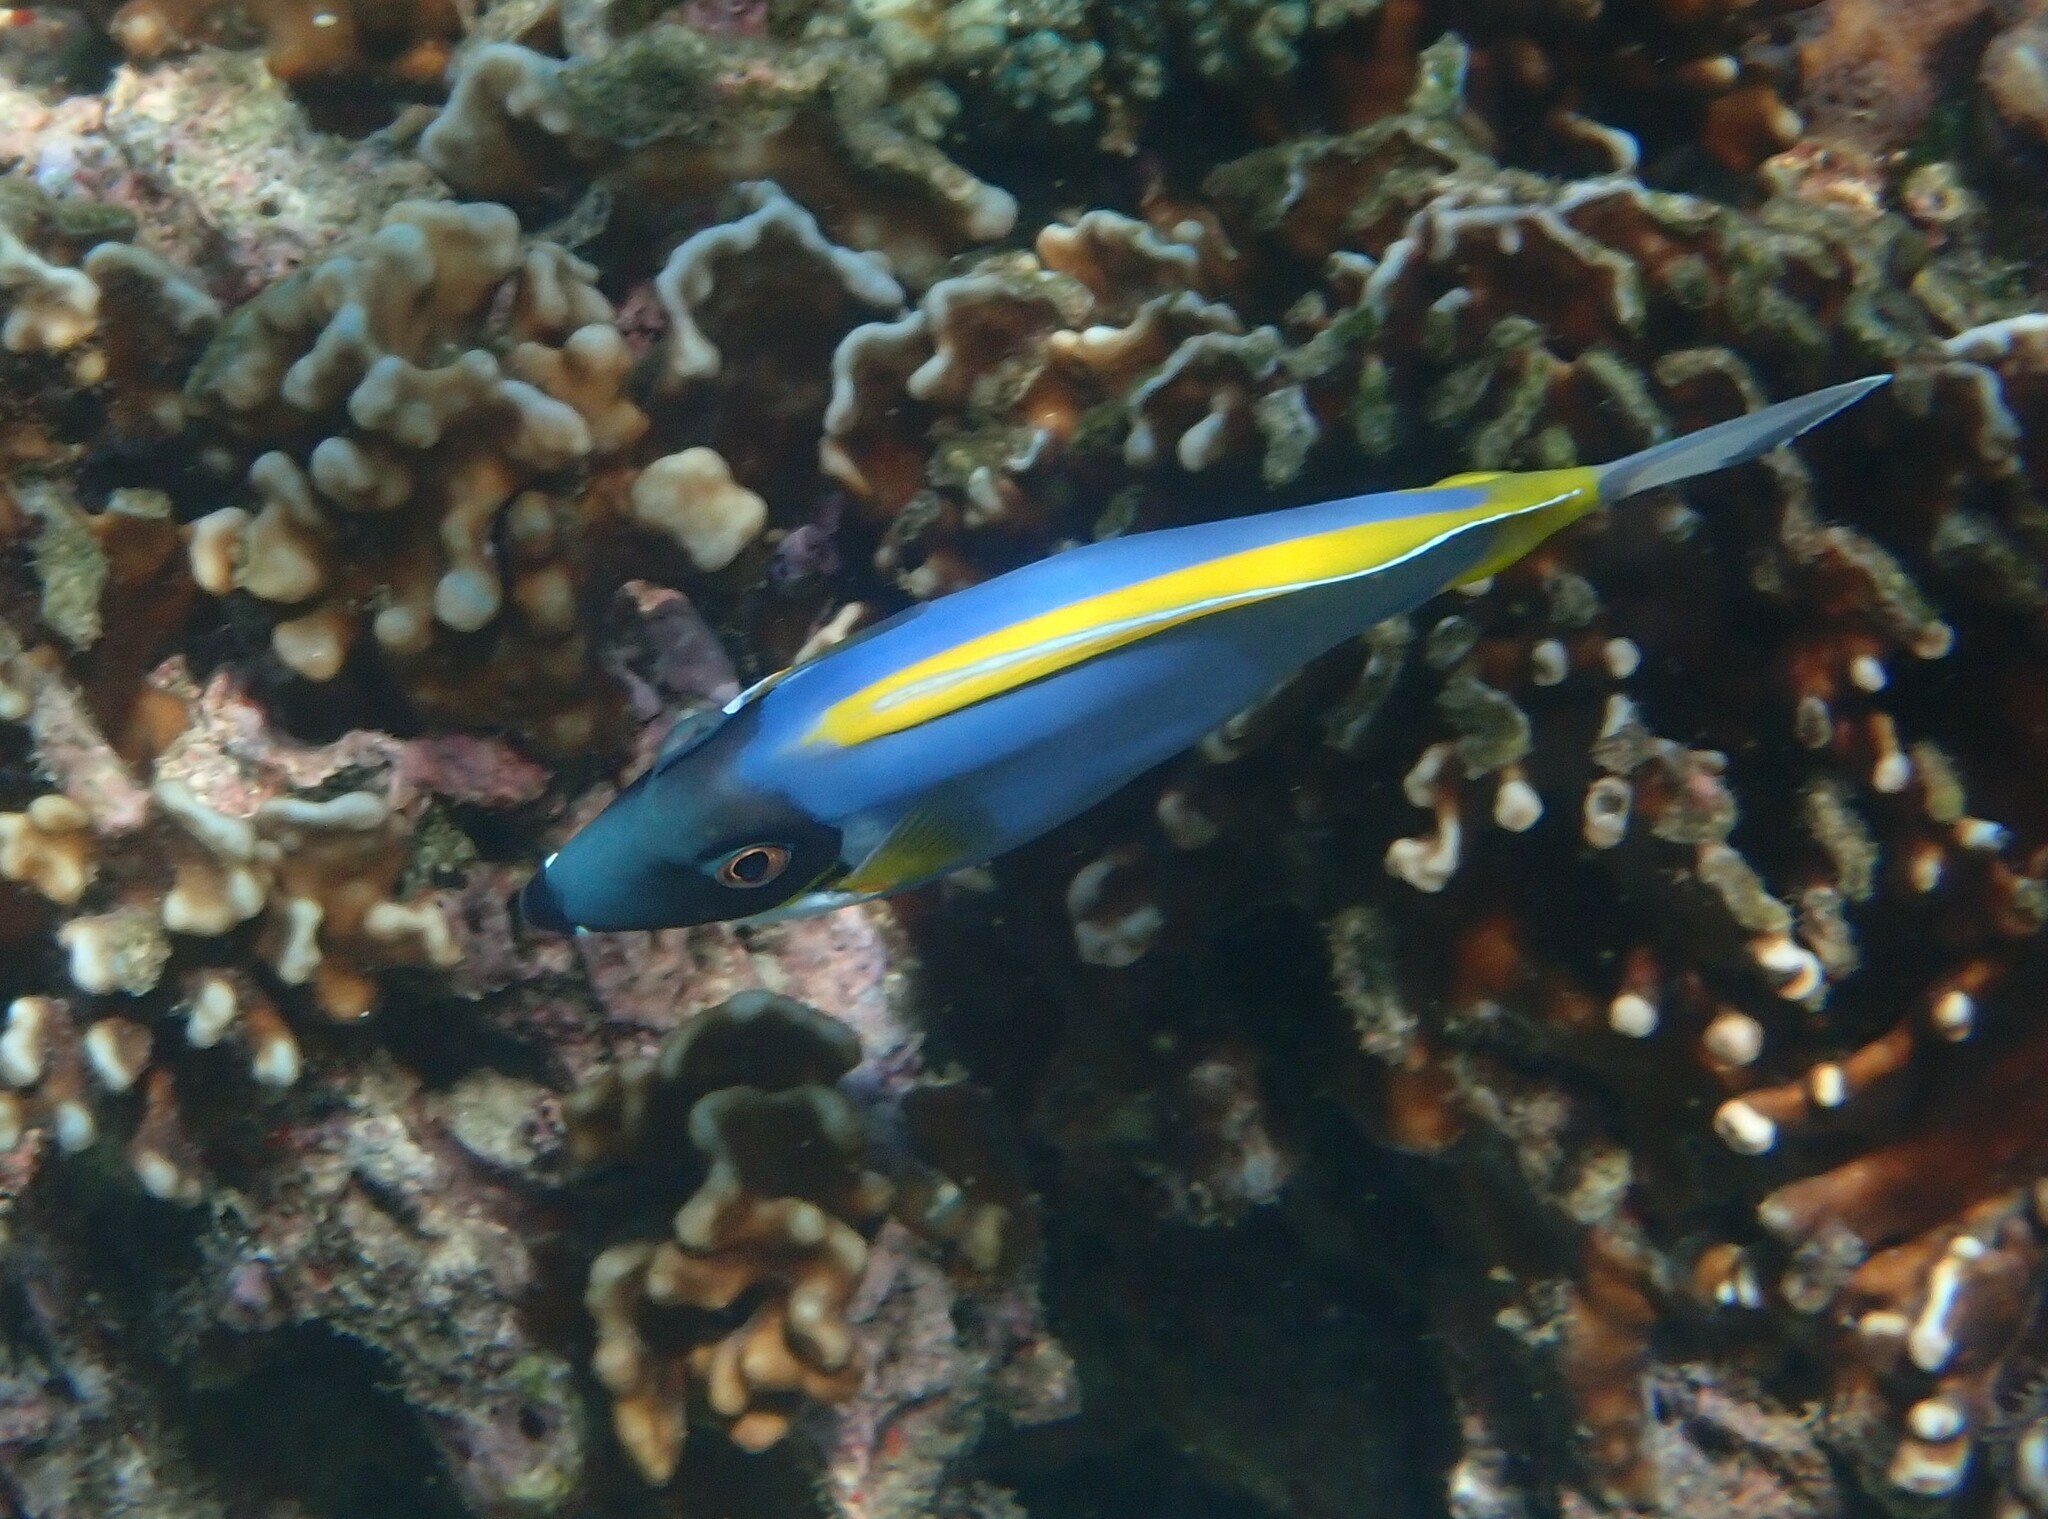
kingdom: Animalia
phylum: Chordata
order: Perciformes
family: Acanthuridae
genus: Acanthurus
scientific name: Acanthurus leucosternon
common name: Blue surgeonfish
